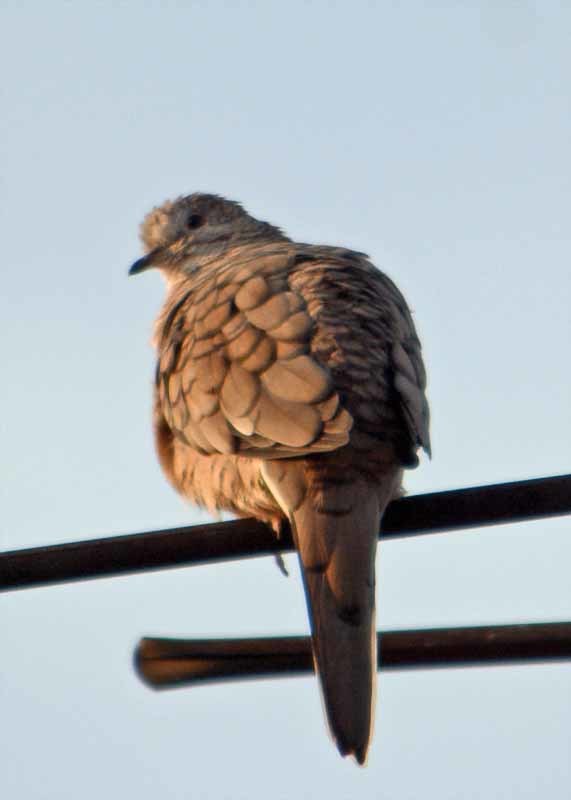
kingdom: Animalia
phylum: Chordata
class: Aves
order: Columbiformes
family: Columbidae
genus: Columbina
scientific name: Columbina inca
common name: Inca dove
